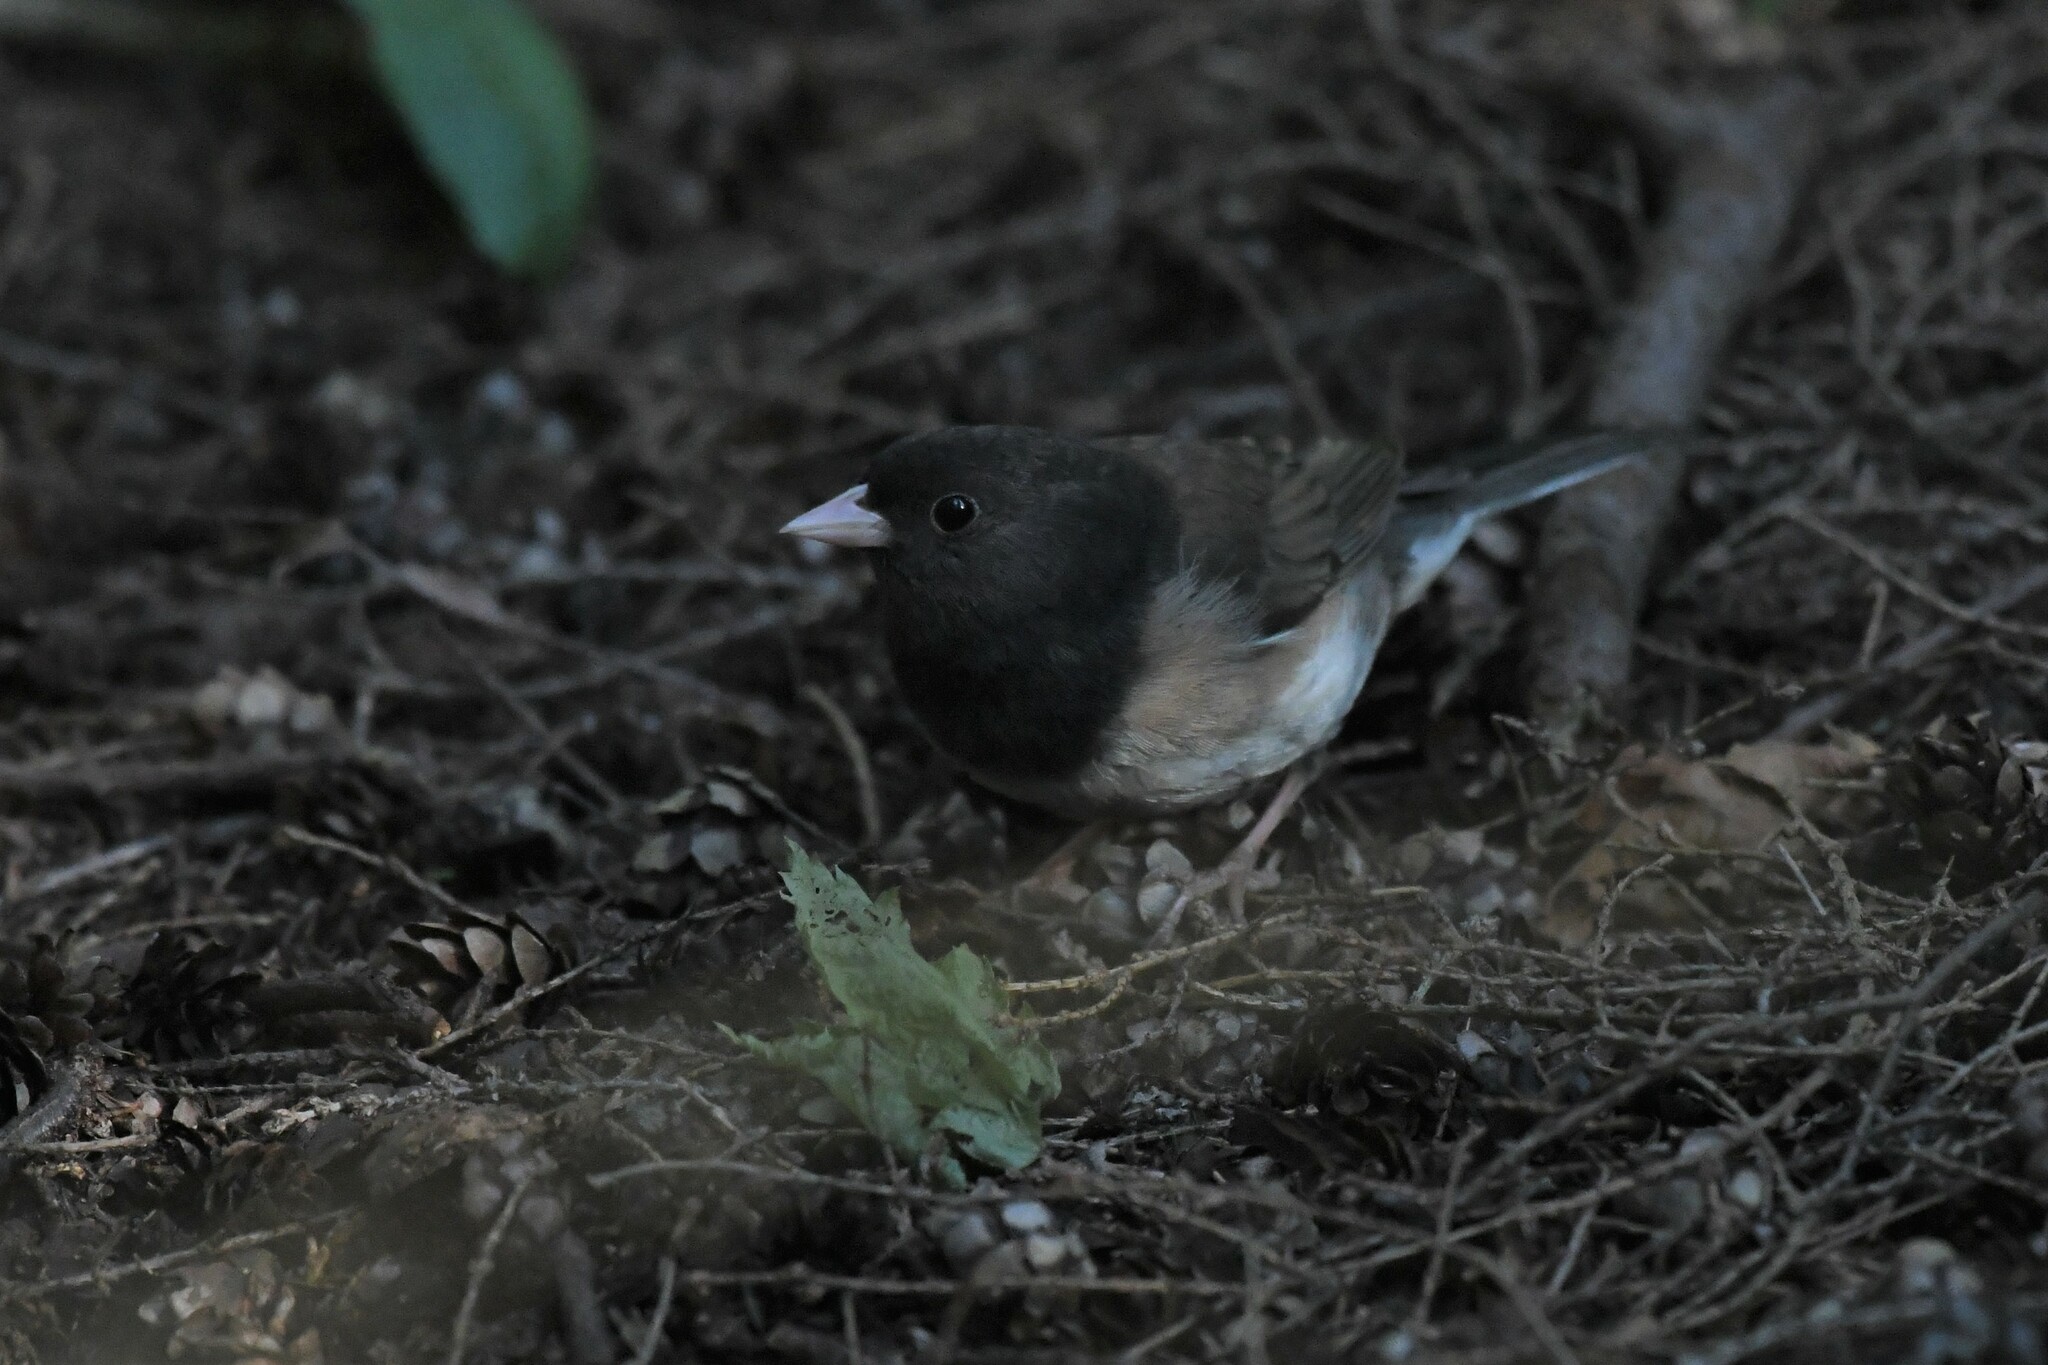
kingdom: Animalia
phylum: Chordata
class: Aves
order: Passeriformes
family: Passerellidae
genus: Junco
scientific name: Junco hyemalis
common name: Dark-eyed junco
